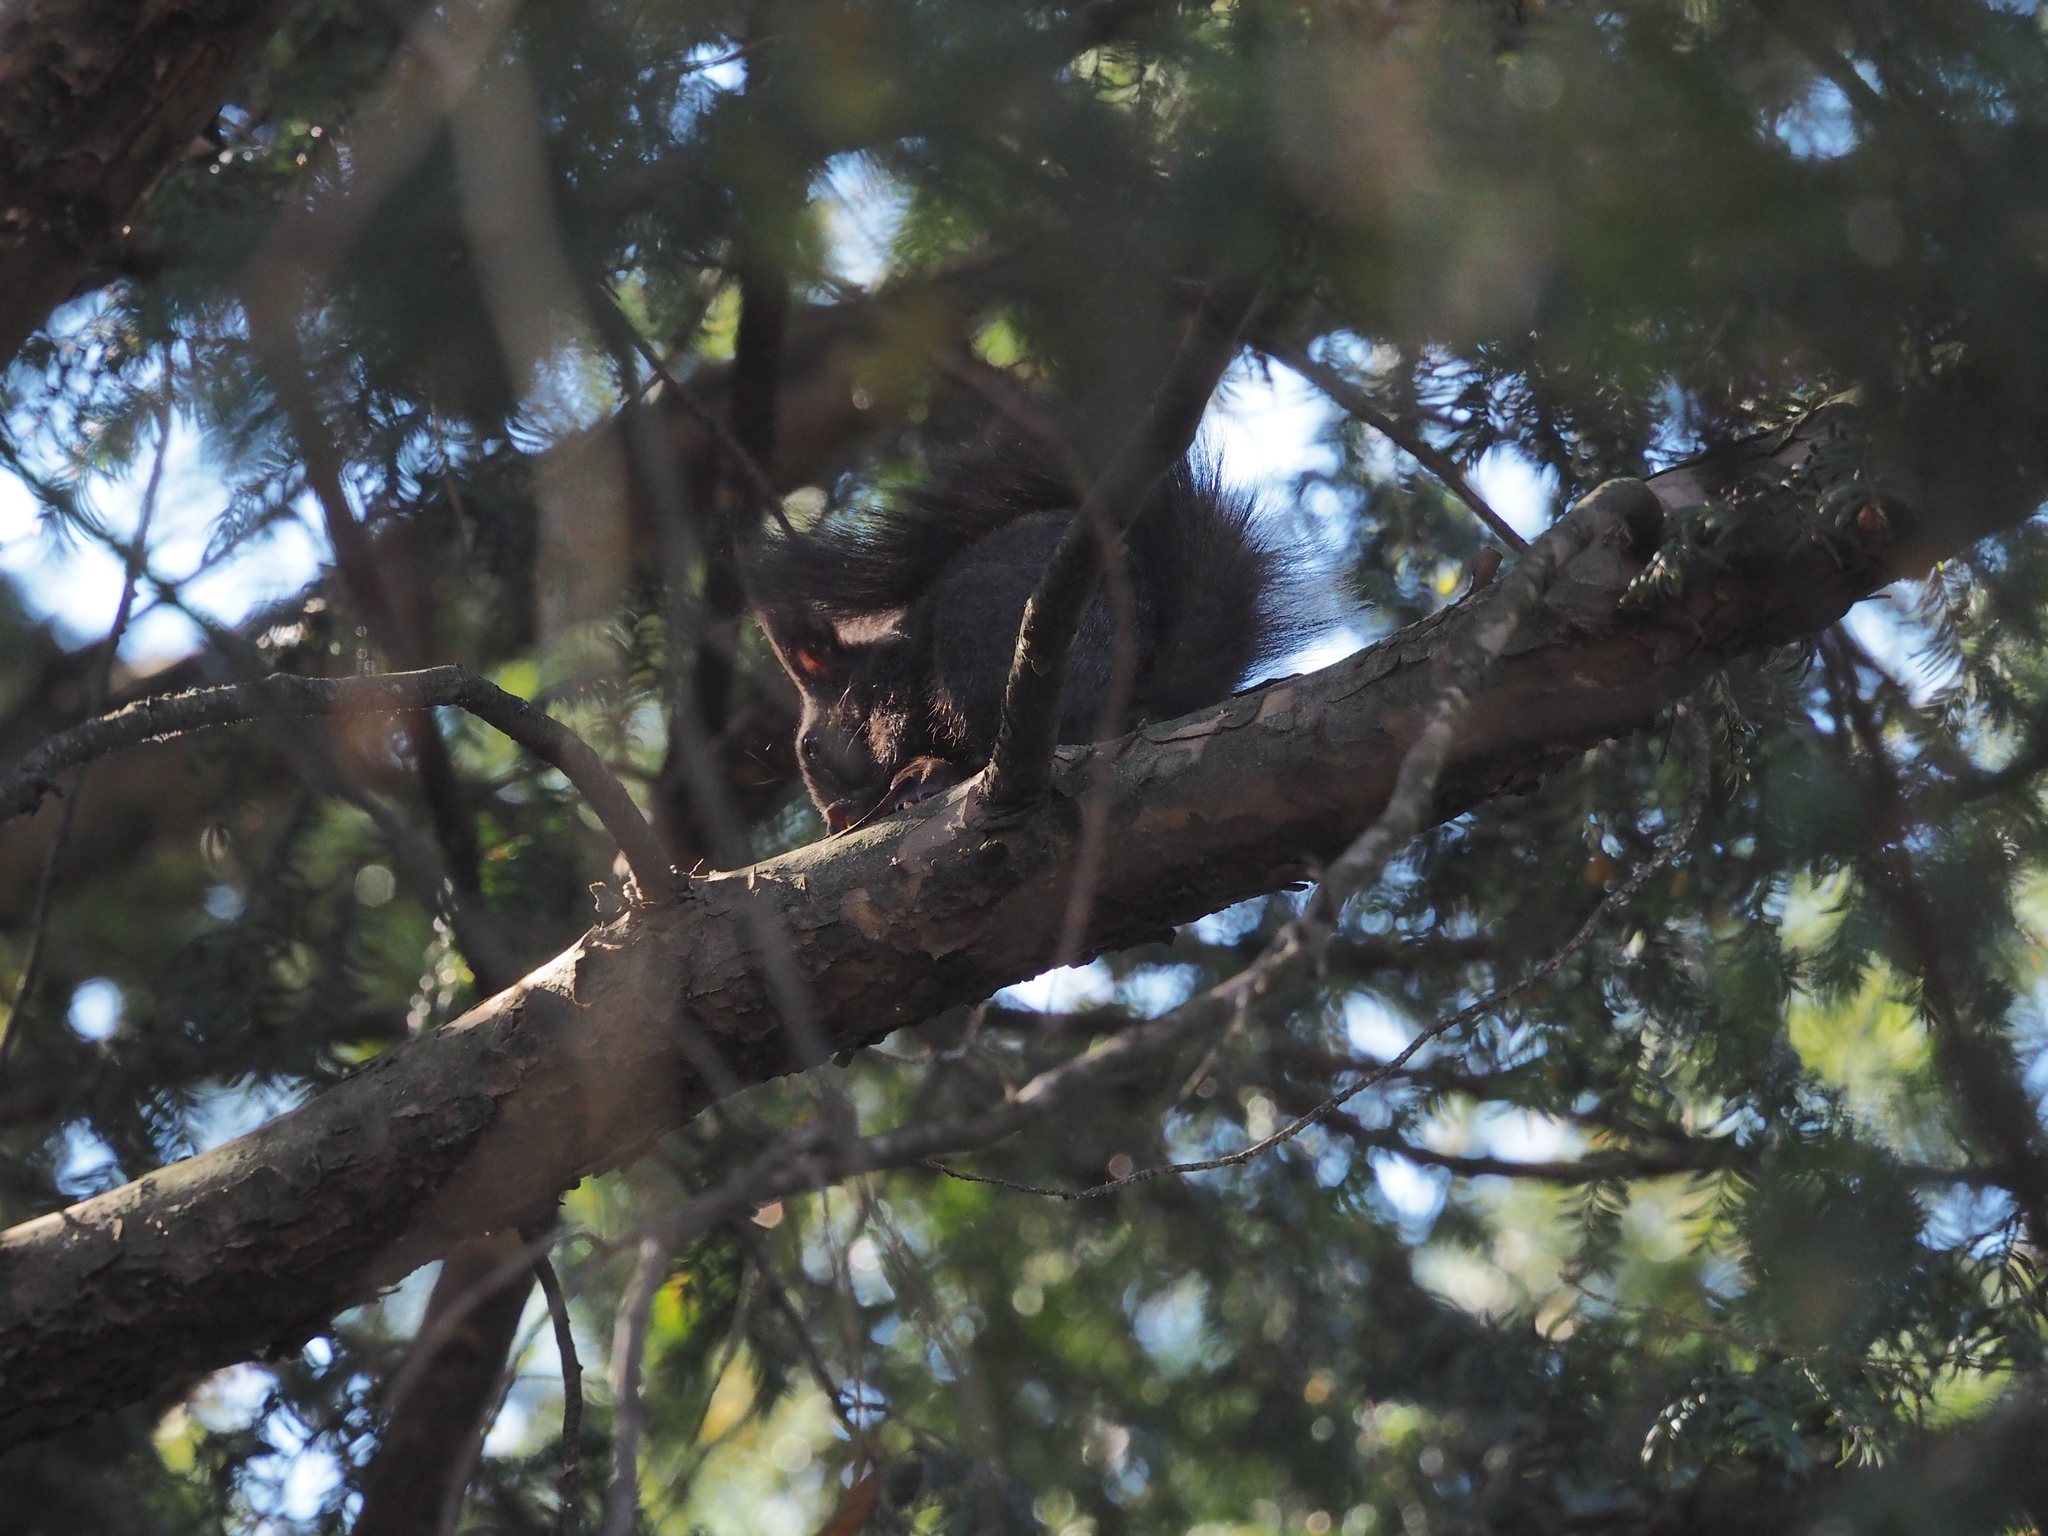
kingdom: Animalia
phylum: Chordata
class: Mammalia
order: Rodentia
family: Sciuridae
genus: Sciurus
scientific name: Sciurus vulgaris
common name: Eurasian red squirrel
